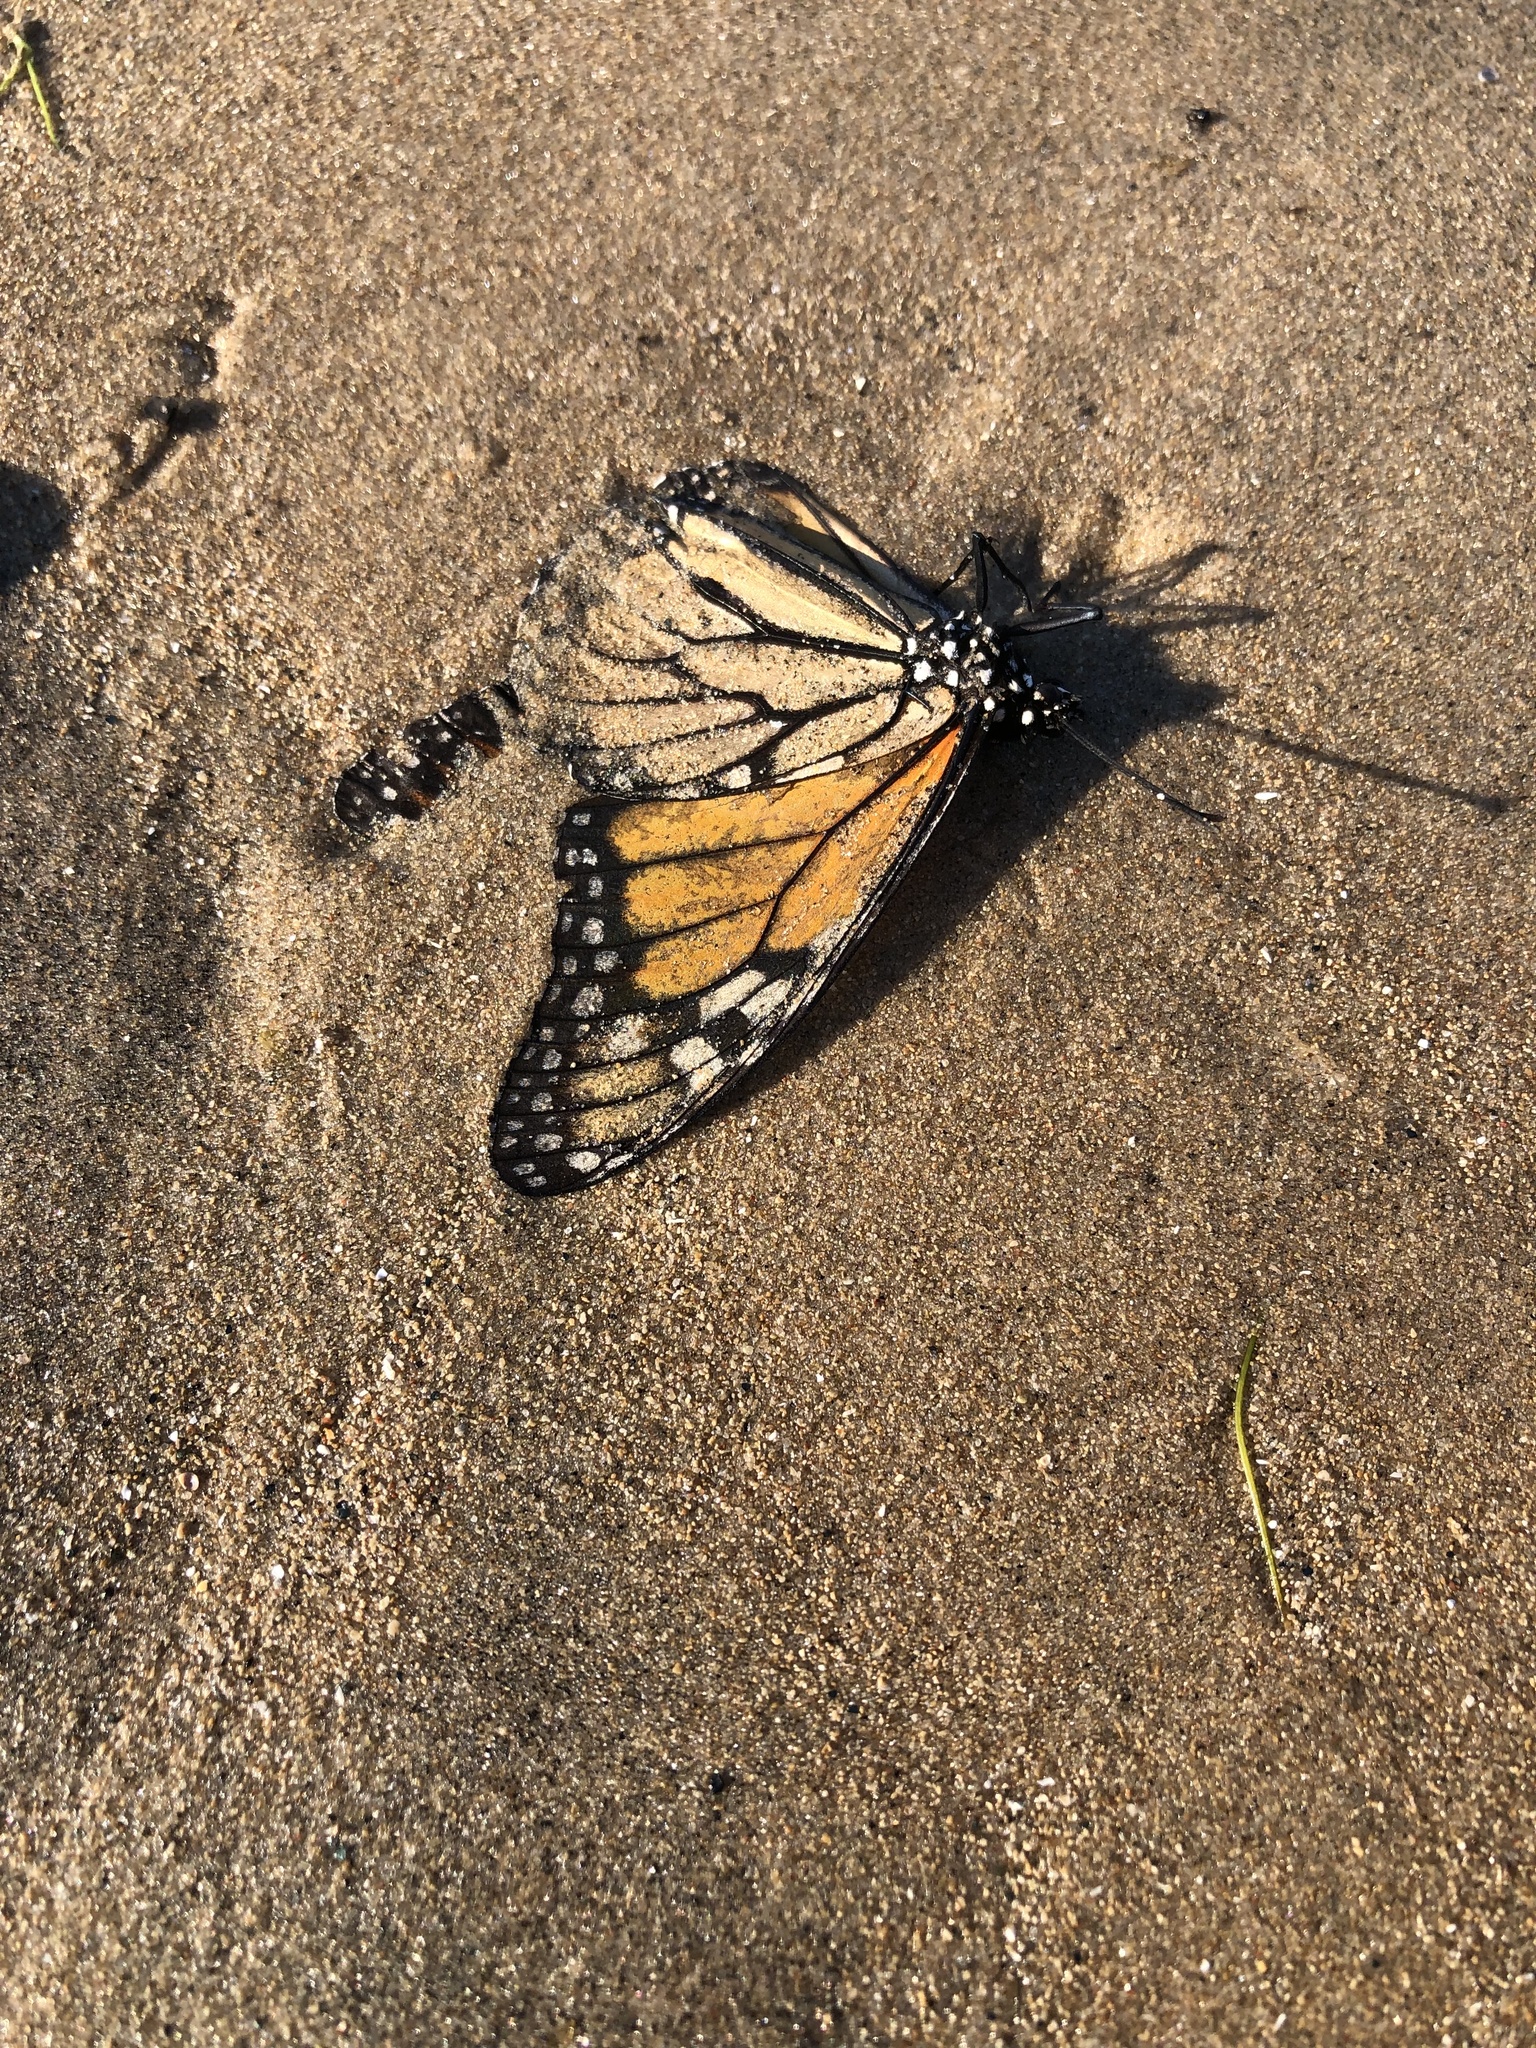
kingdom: Animalia
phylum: Arthropoda
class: Insecta
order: Lepidoptera
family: Nymphalidae
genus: Danaus
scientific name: Danaus plexippus
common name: Monarch
